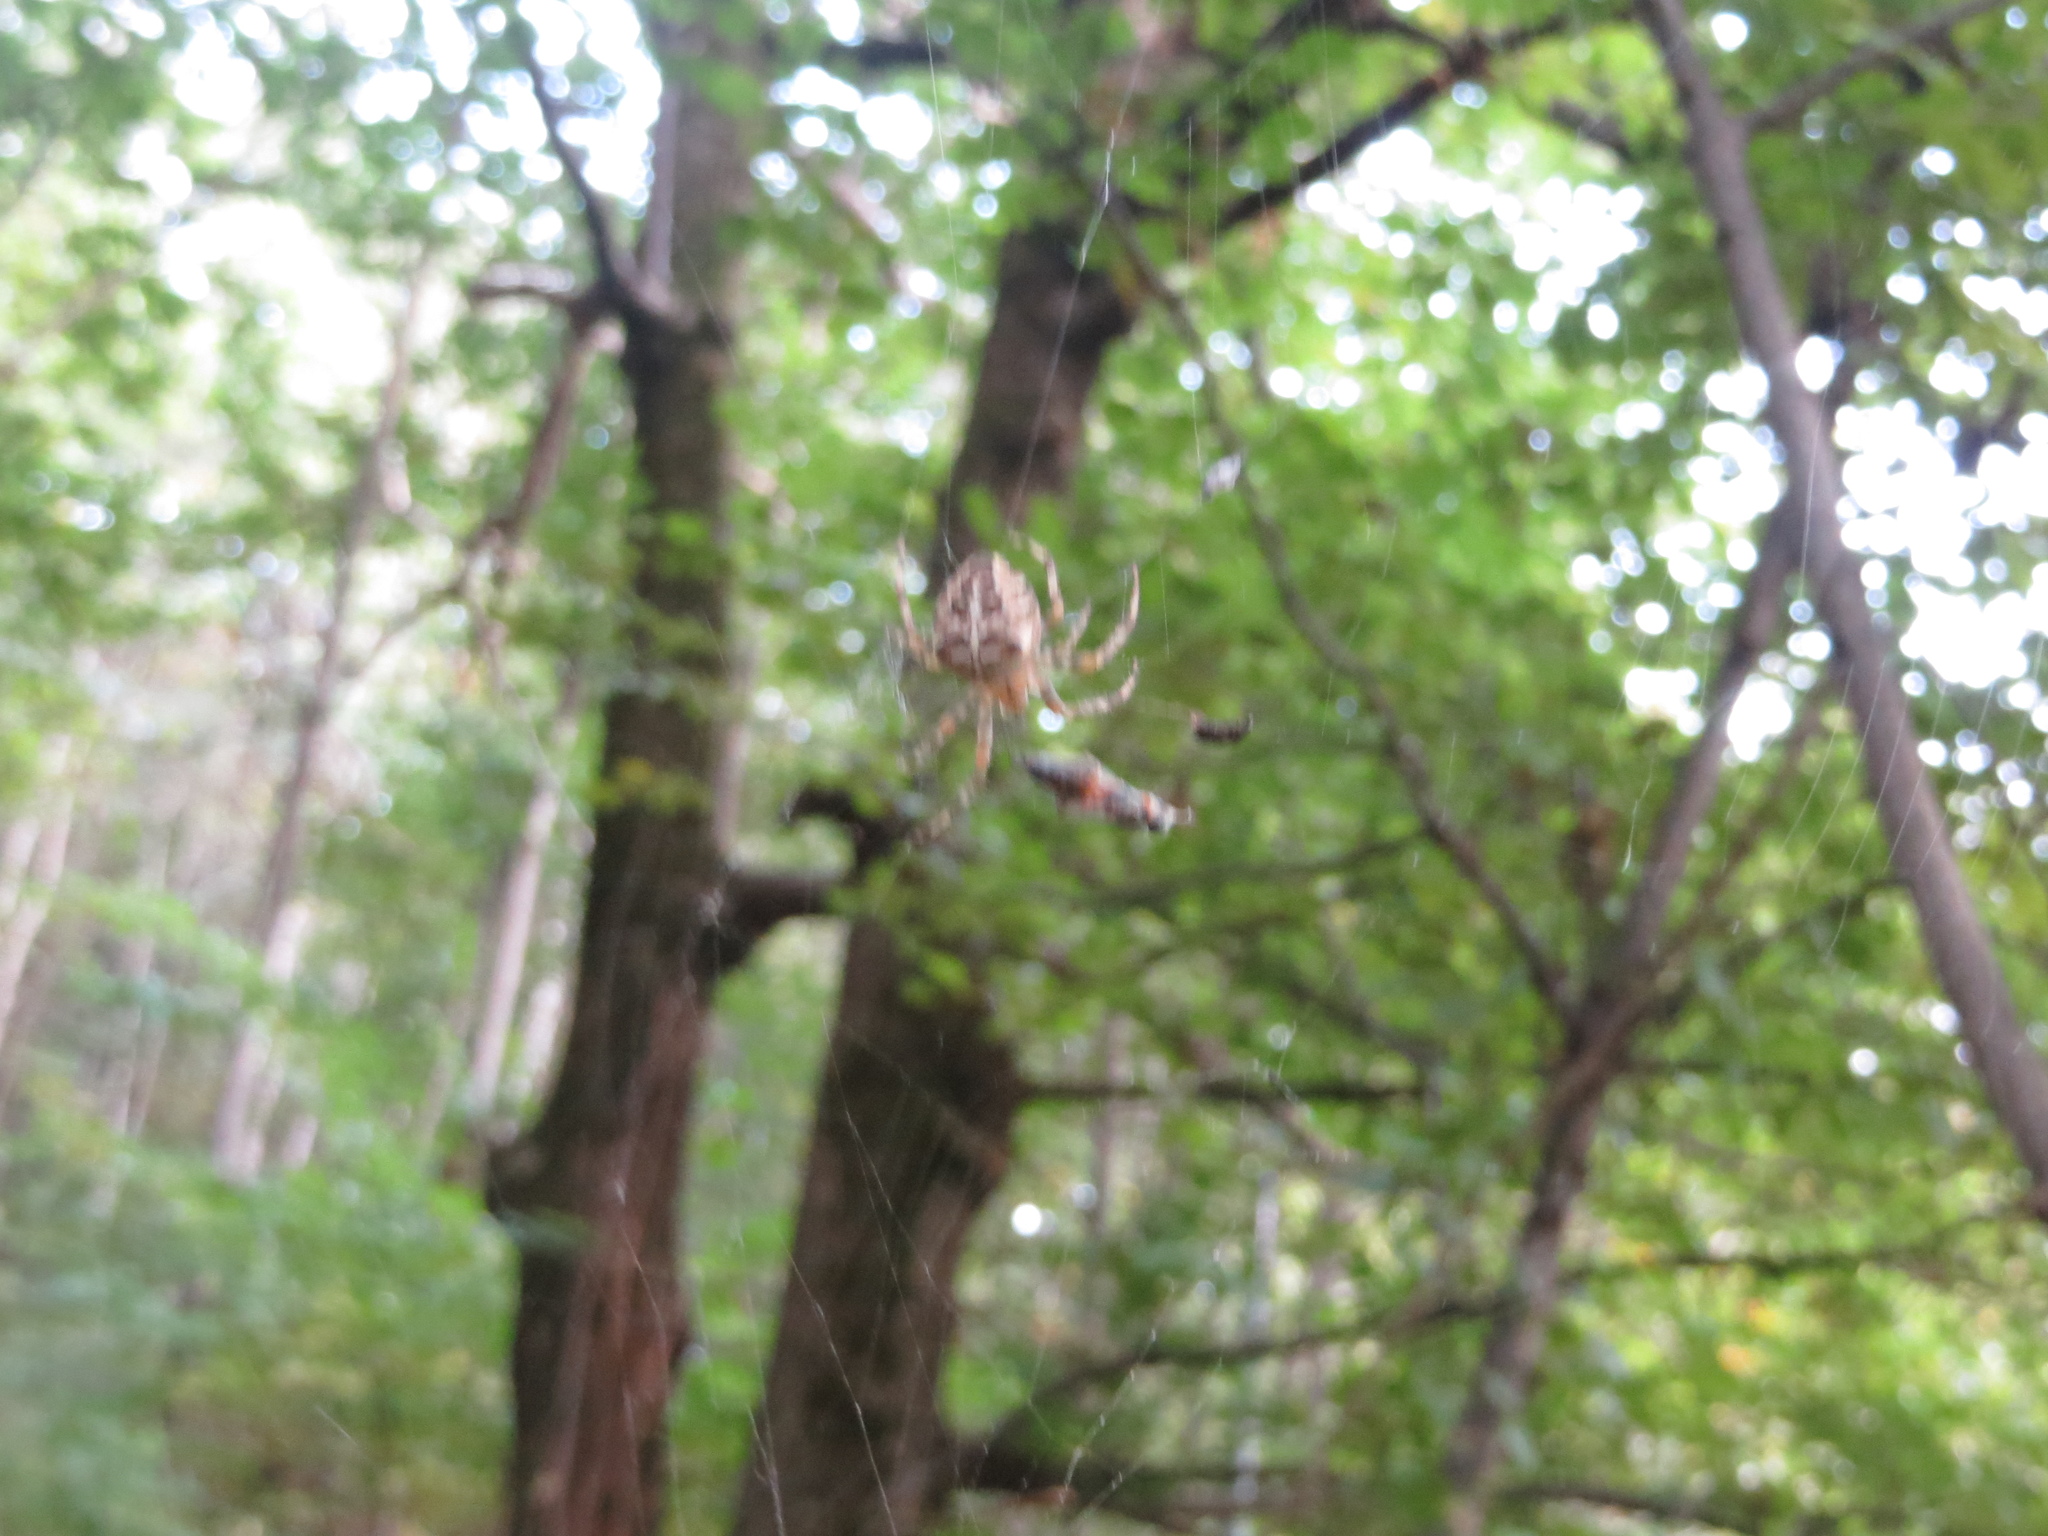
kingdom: Animalia
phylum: Arthropoda
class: Arachnida
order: Araneae
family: Araneidae
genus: Araneus
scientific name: Araneus diadematus
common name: Cross orbweaver
